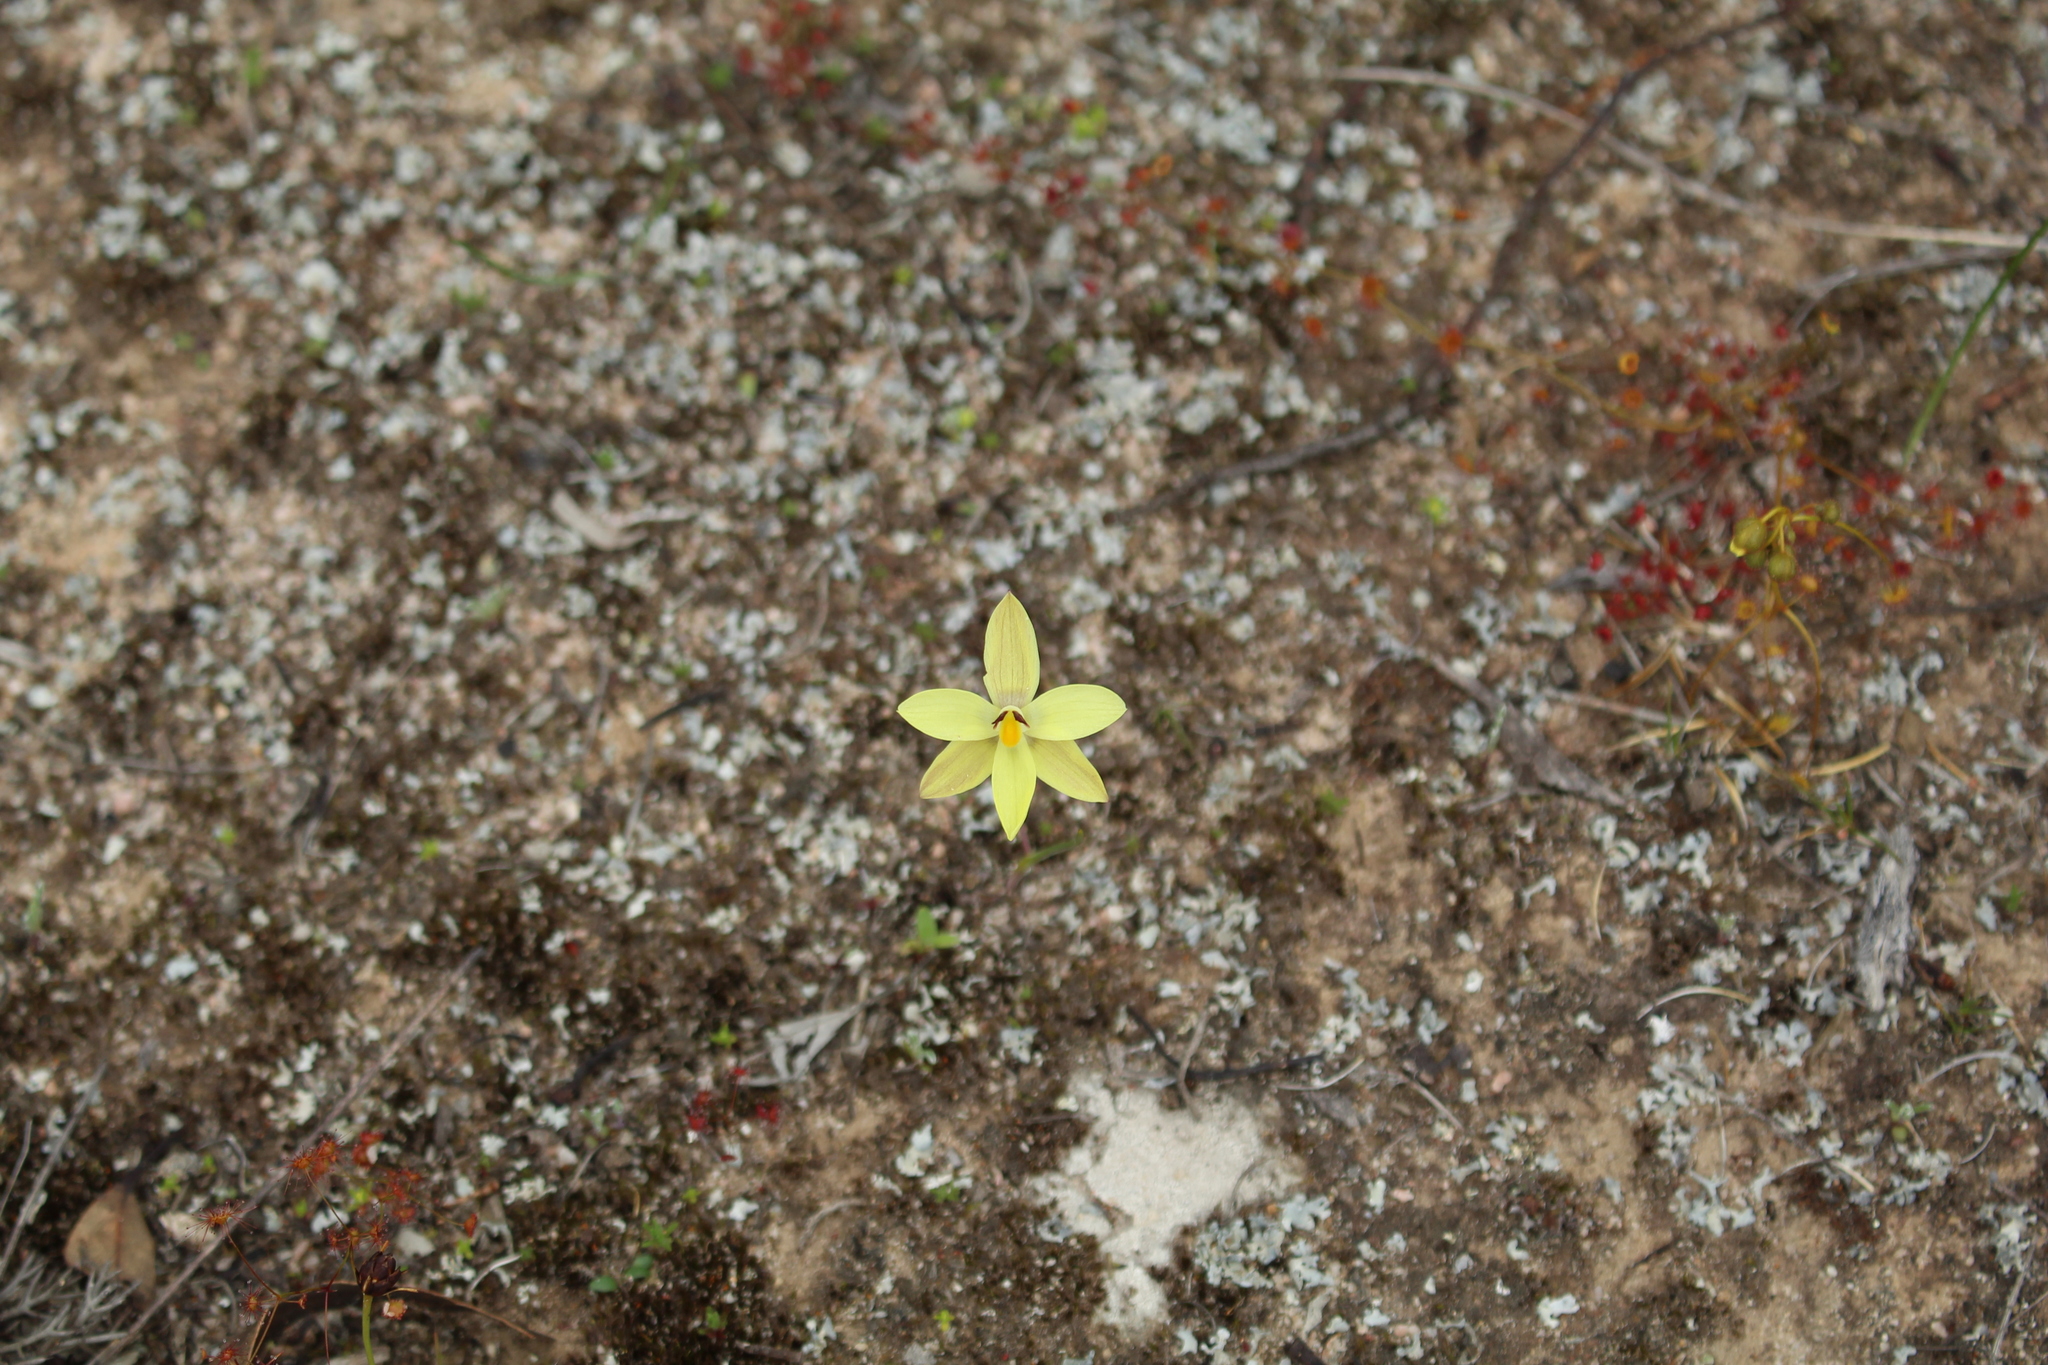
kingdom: Plantae
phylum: Tracheophyta
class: Liliopsida
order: Asparagales
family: Orchidaceae
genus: Thelymitra
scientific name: Thelymitra antennifera
